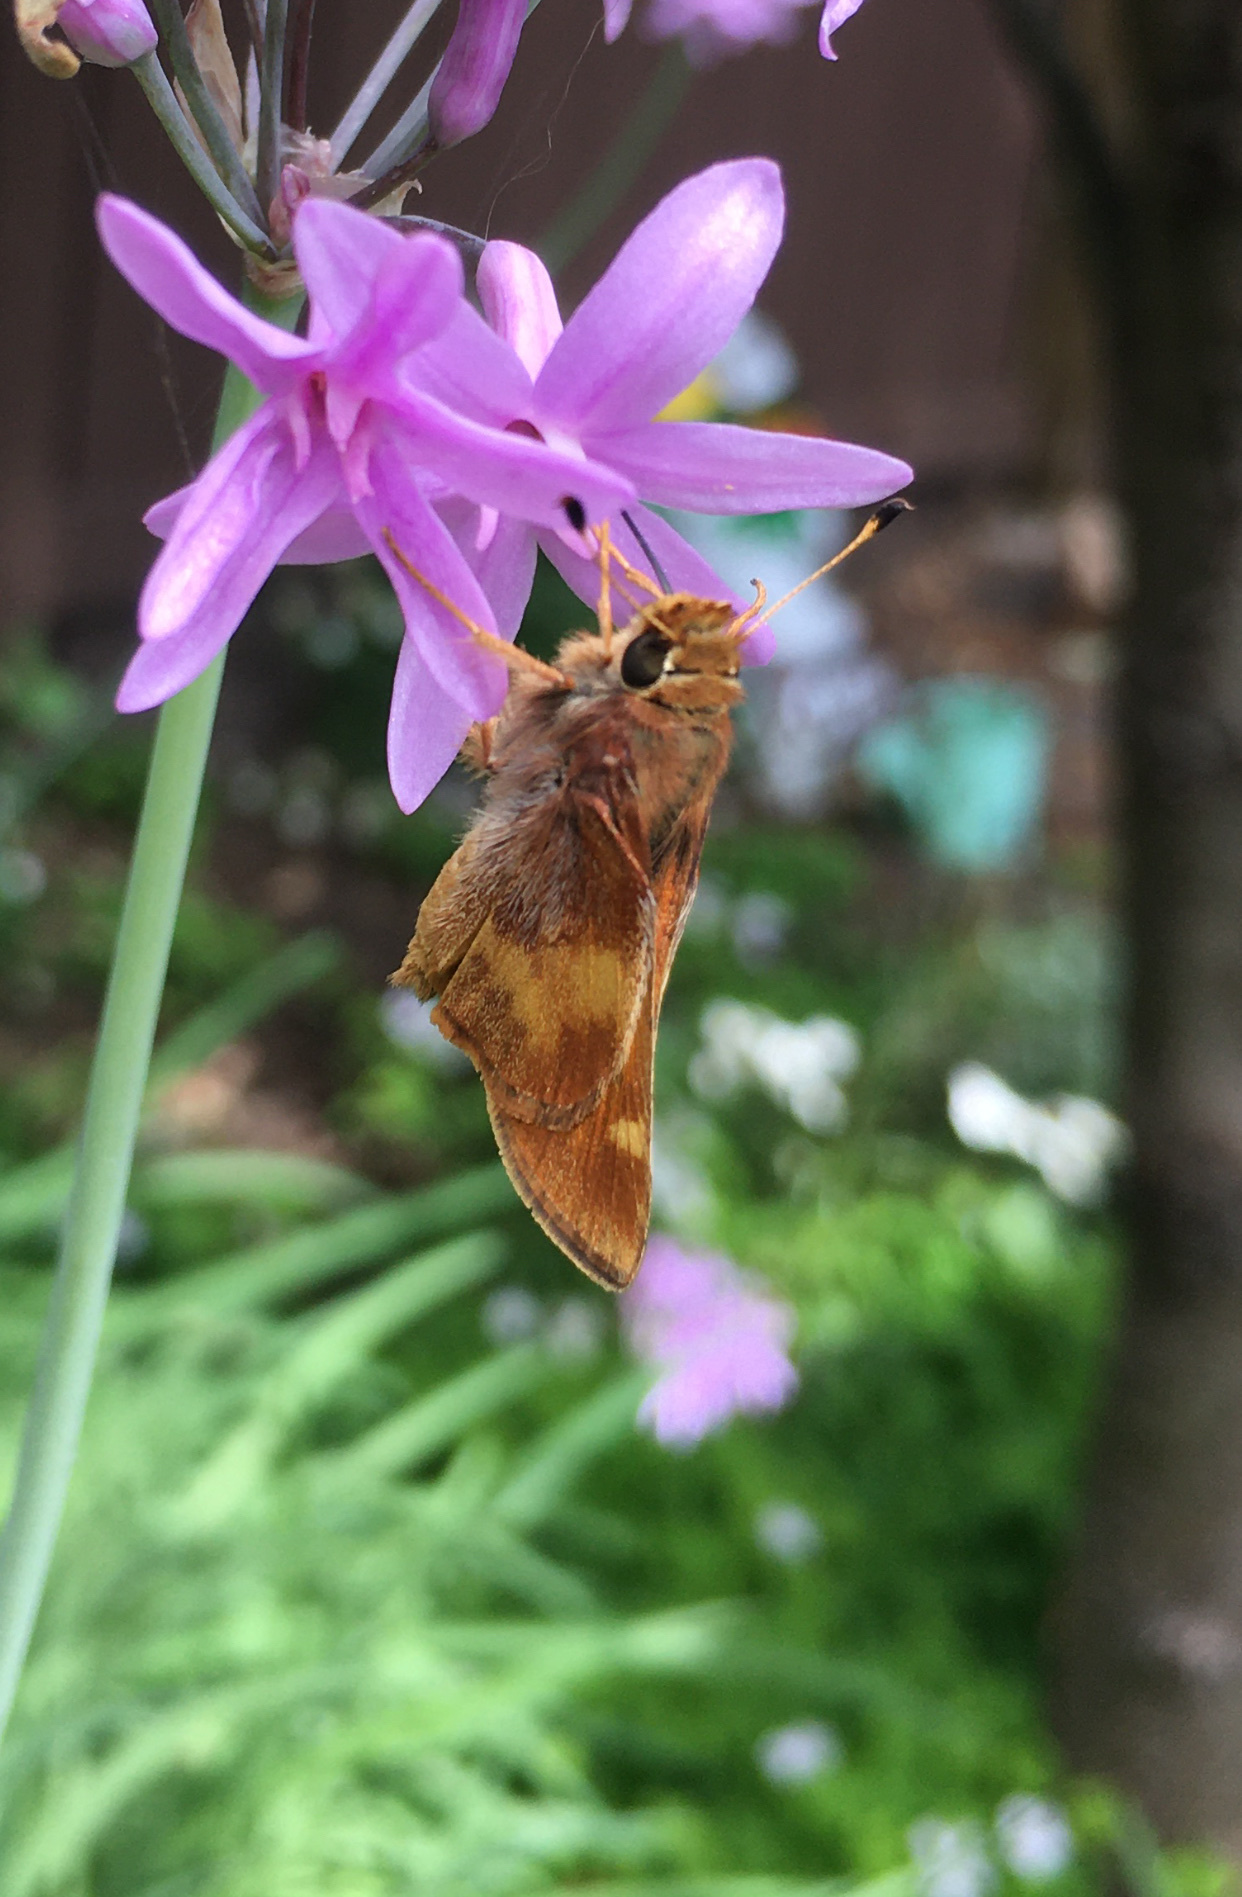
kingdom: Animalia
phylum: Arthropoda
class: Insecta
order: Lepidoptera
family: Hesperiidae
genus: Lon
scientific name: Lon melane
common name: Umber skipper
